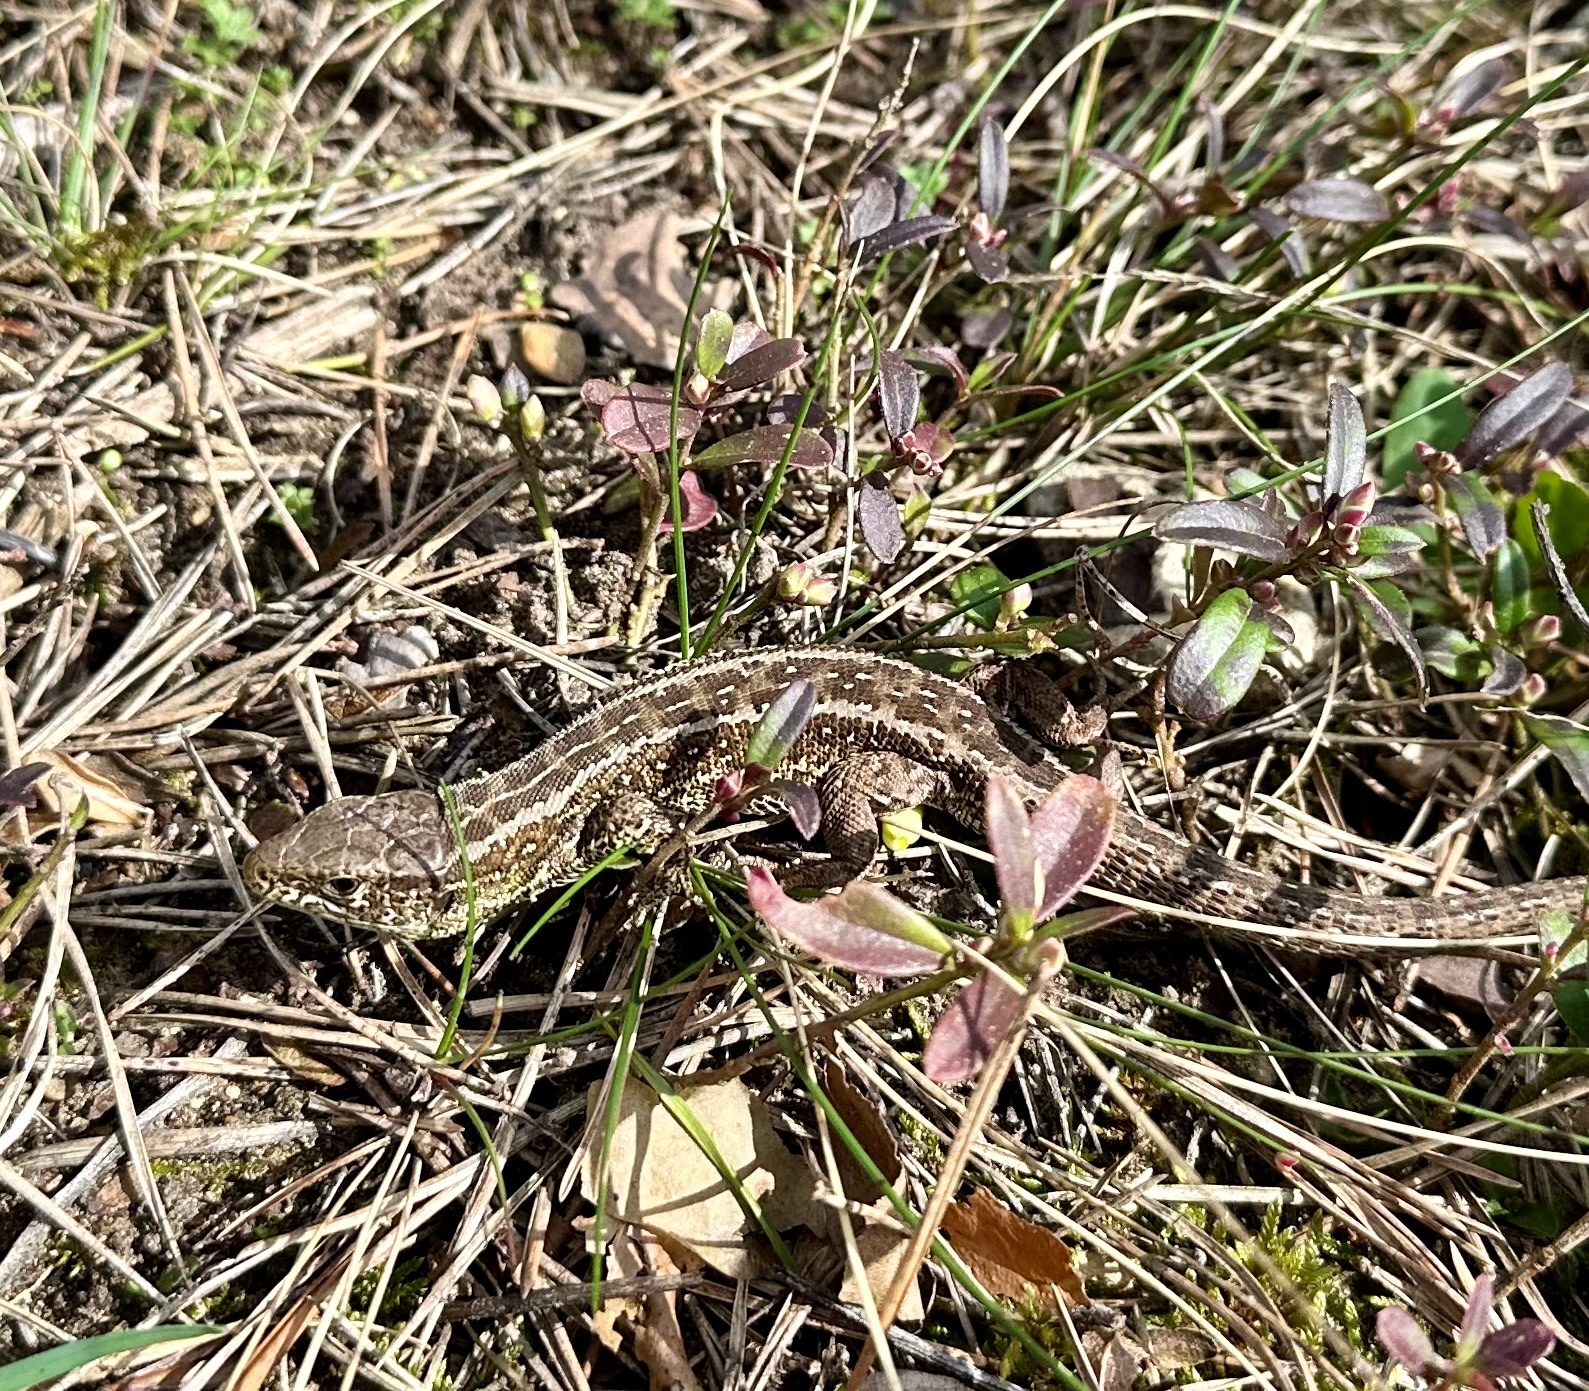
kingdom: Animalia
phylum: Chordata
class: Squamata
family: Lacertidae
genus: Lacerta
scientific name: Lacerta agilis
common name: Sand lizard
